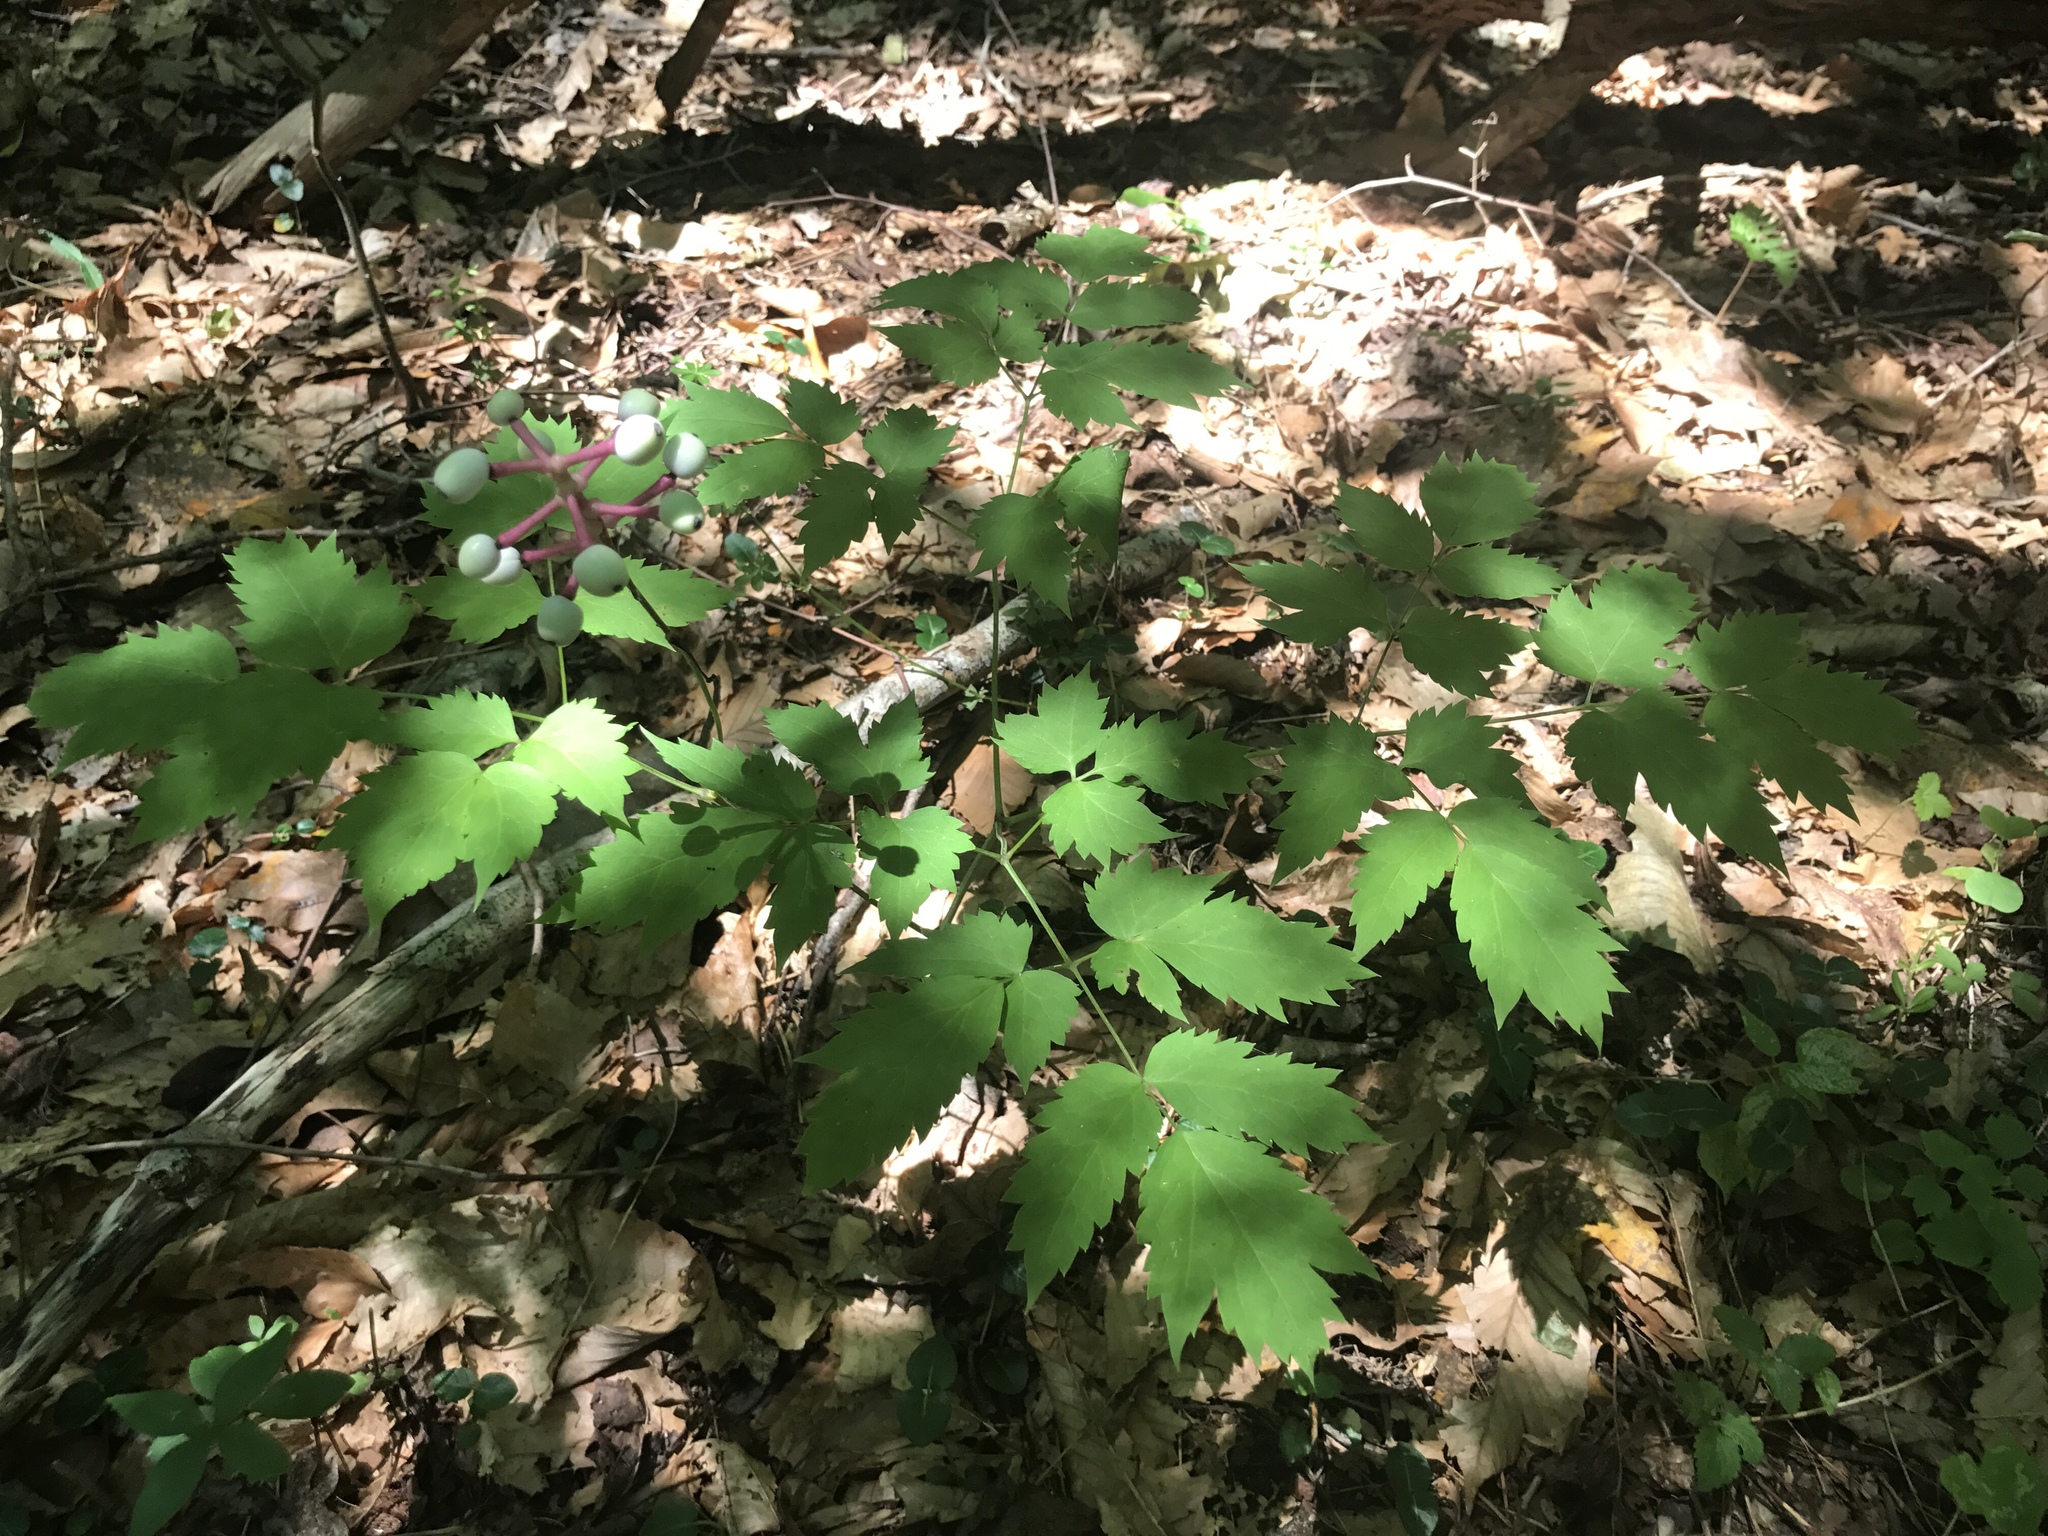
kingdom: Plantae
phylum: Tracheophyta
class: Magnoliopsida
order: Ranunculales
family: Ranunculaceae
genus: Actaea
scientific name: Actaea pachypoda
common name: Doll's-eyes
